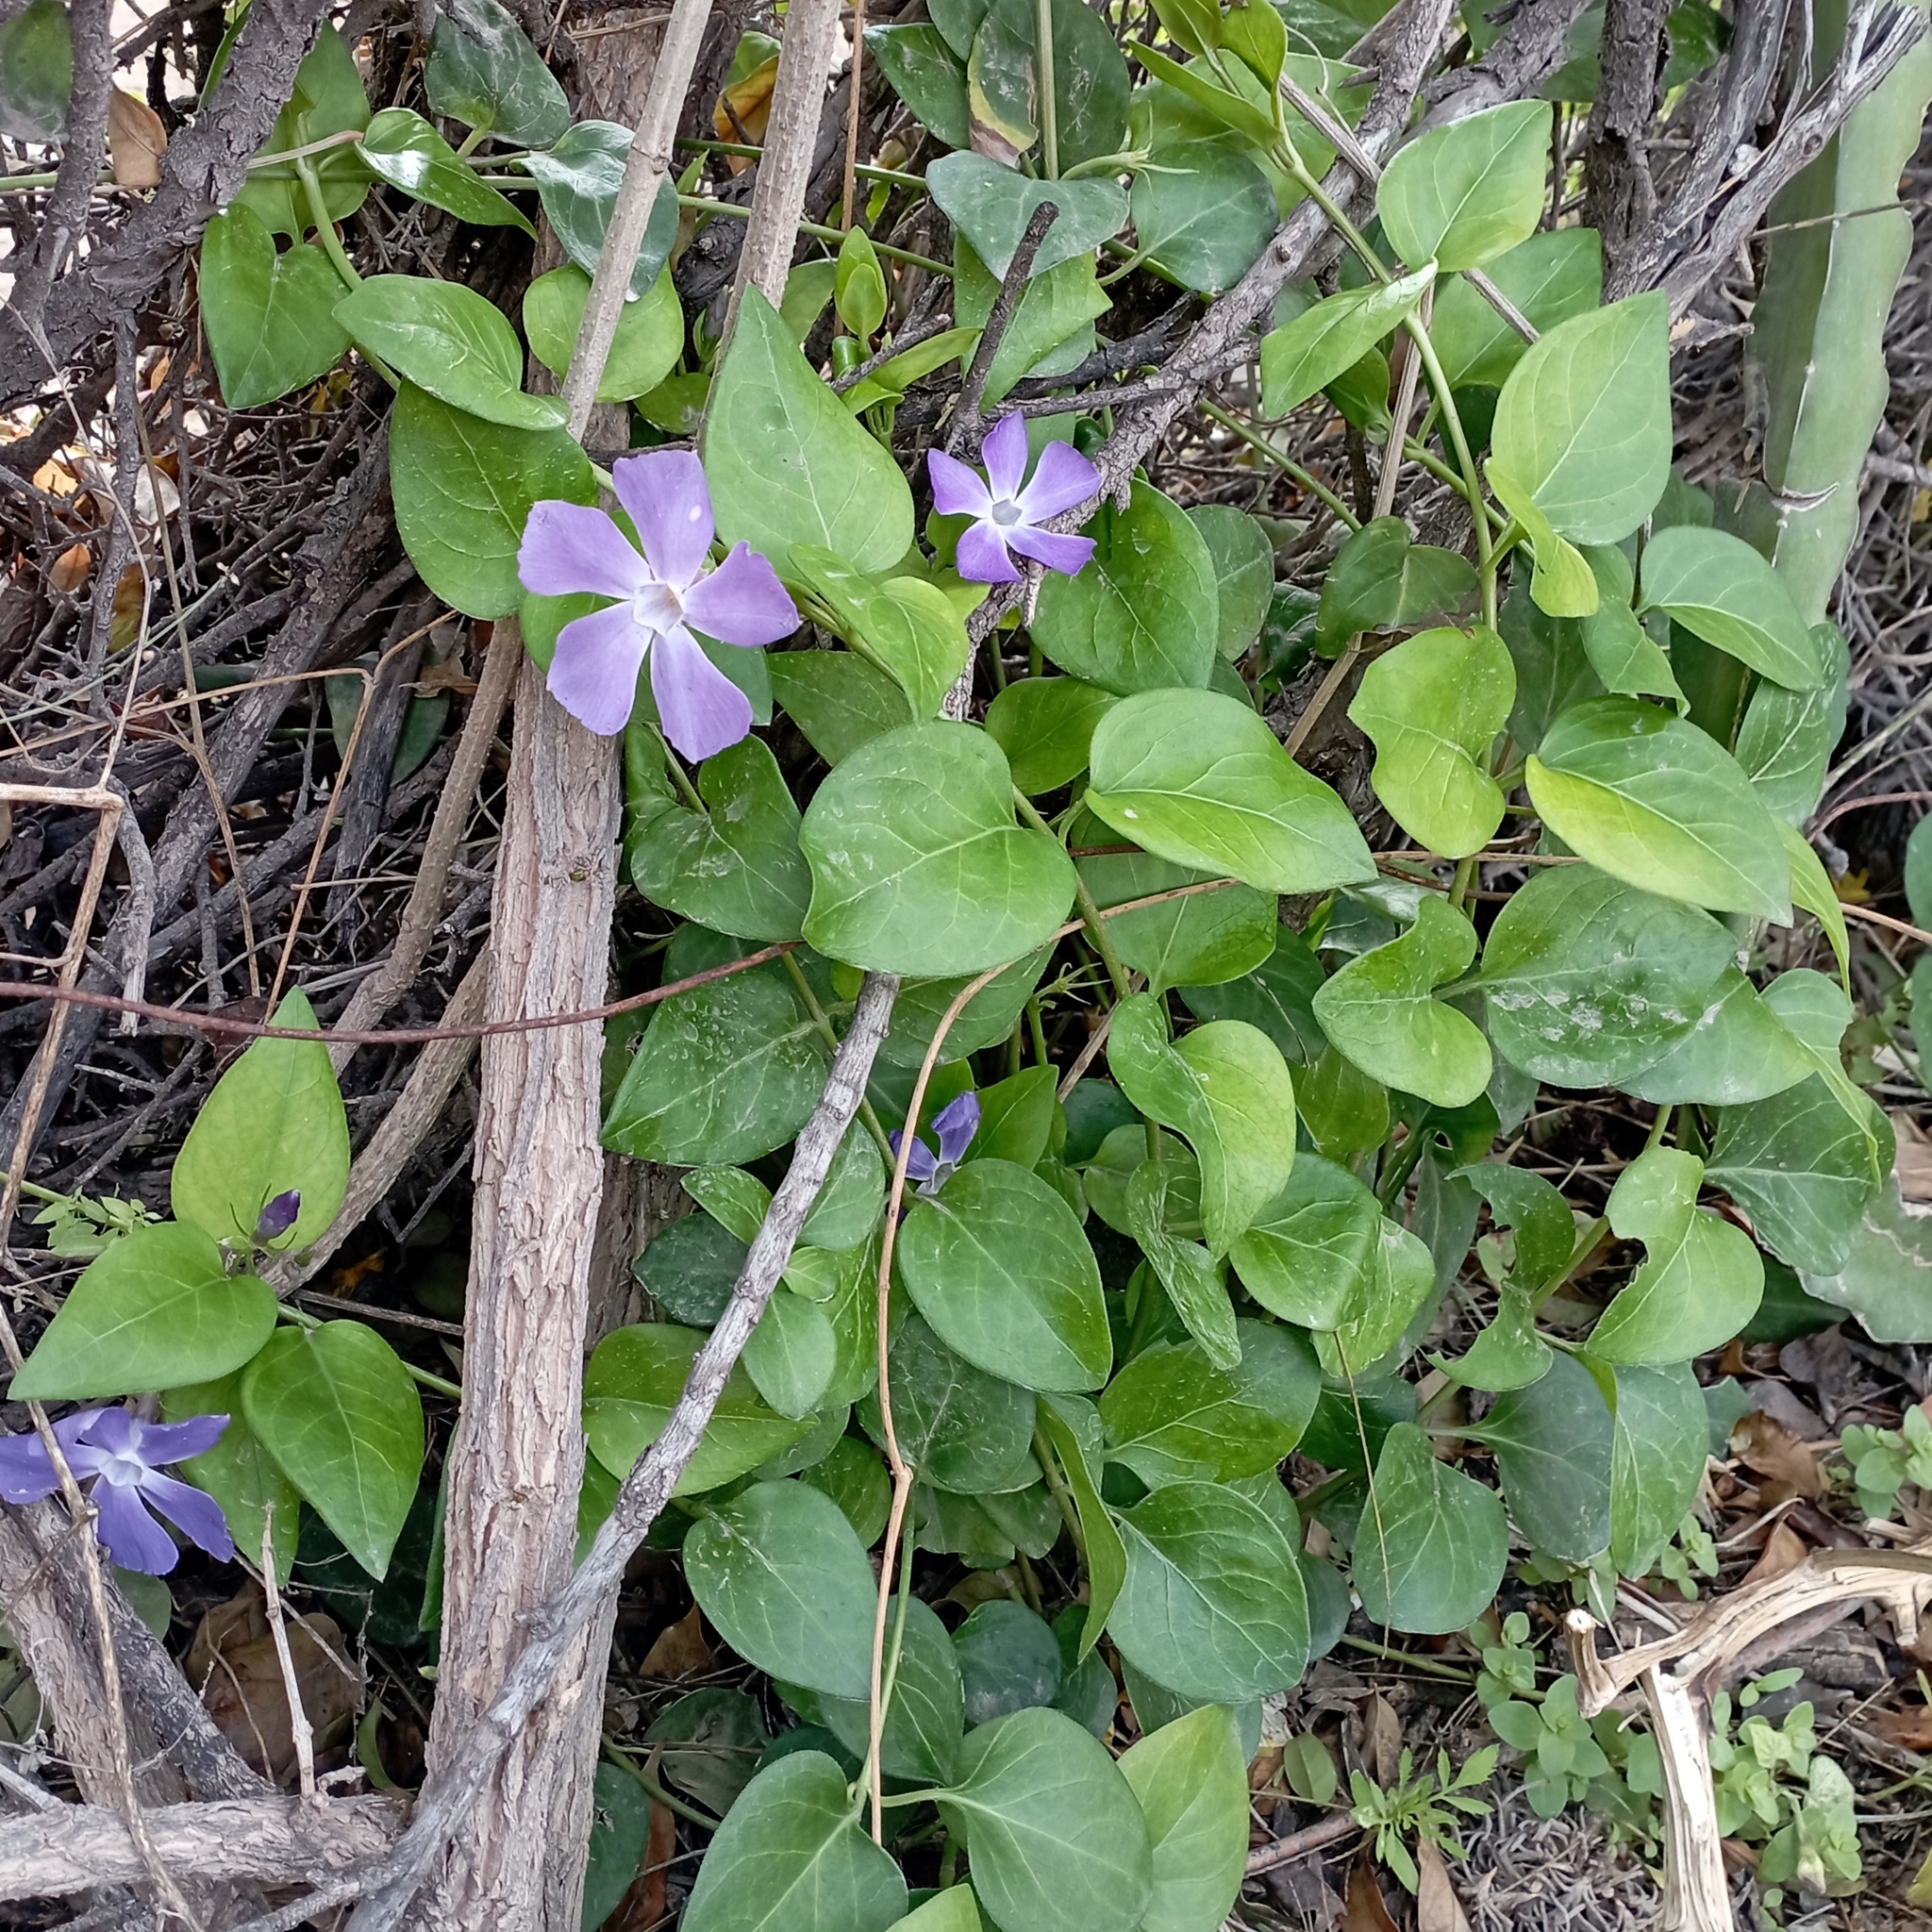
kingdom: Plantae
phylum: Tracheophyta
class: Magnoliopsida
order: Gentianales
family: Apocynaceae
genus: Vinca
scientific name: Vinca major
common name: Greater periwinkle
